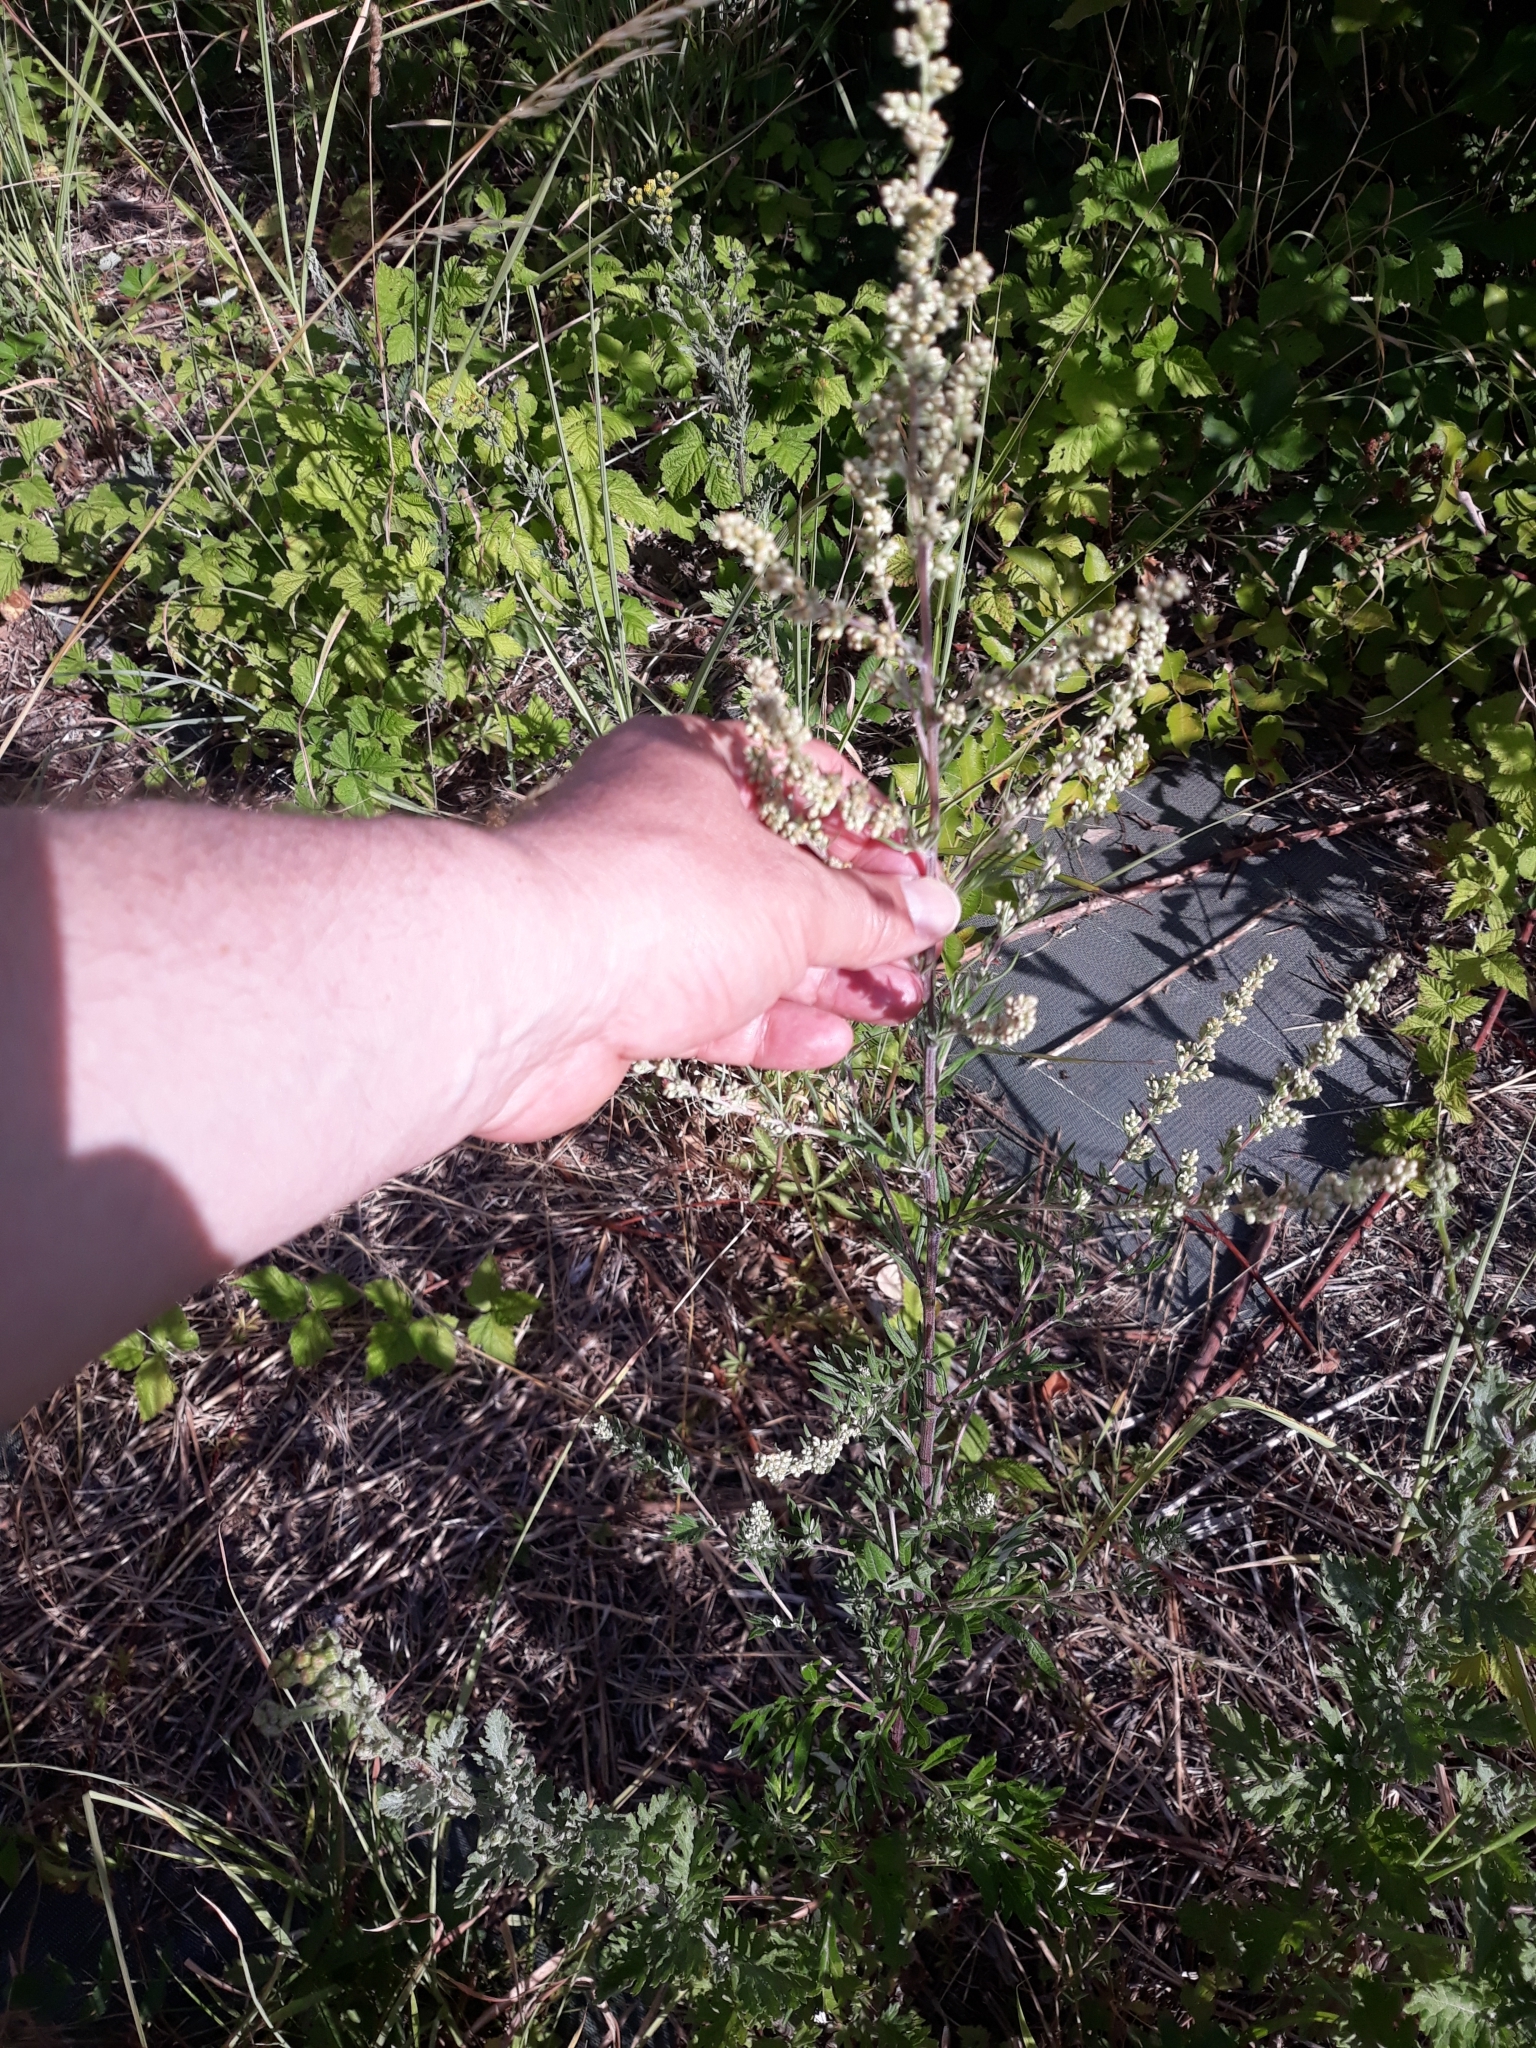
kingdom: Plantae
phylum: Tracheophyta
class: Magnoliopsida
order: Asterales
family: Asteraceae
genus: Jacobaea
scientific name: Jacobaea vulgaris
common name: Stinking willie
